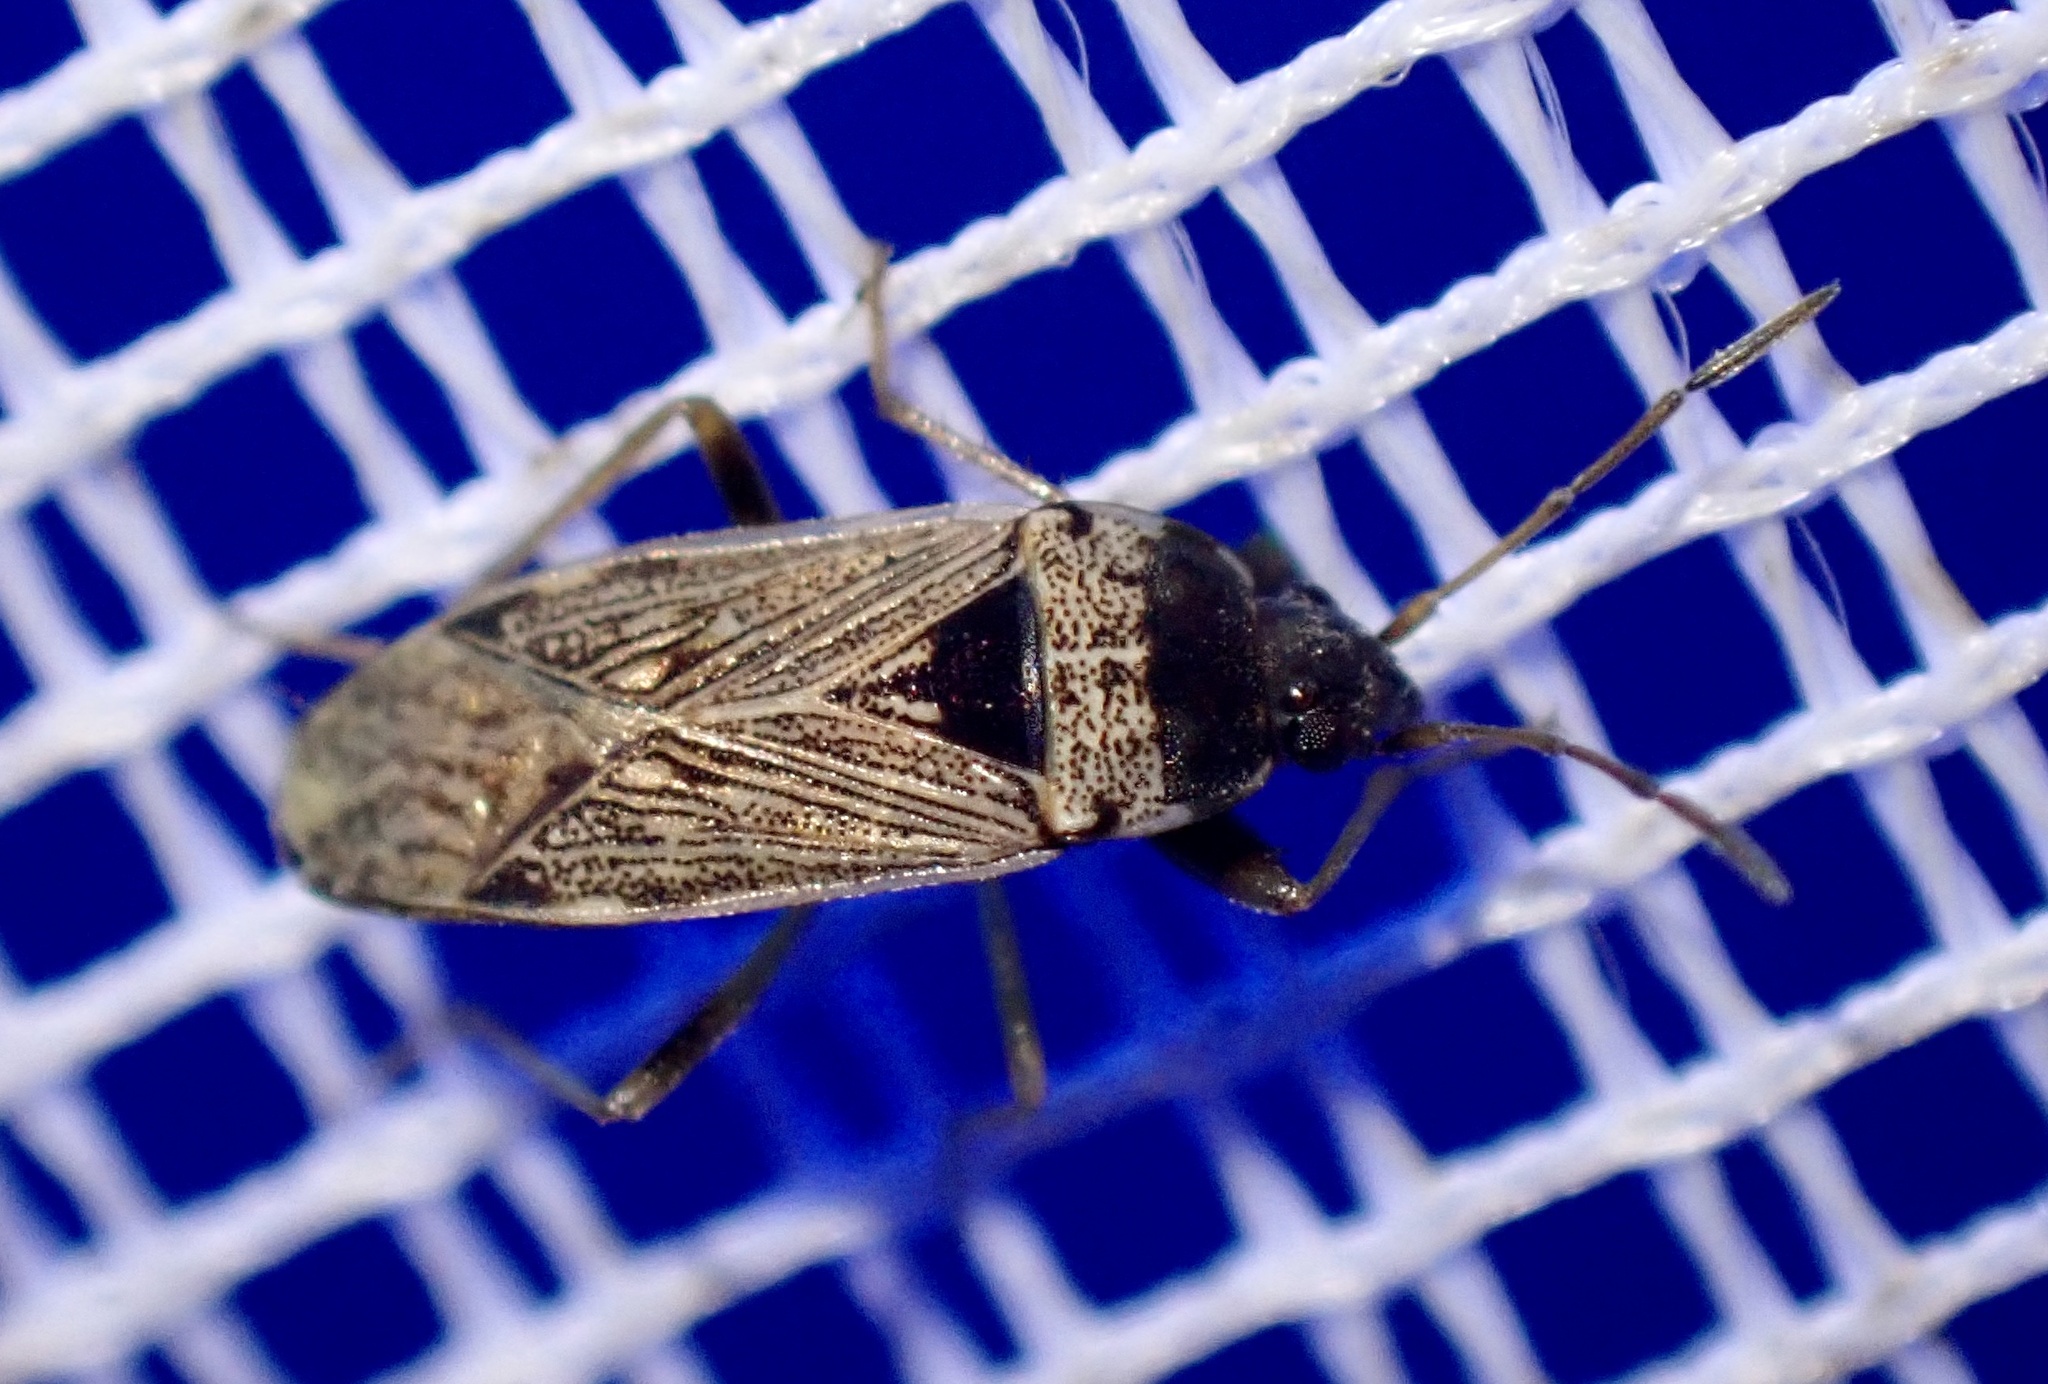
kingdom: Animalia
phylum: Arthropoda
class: Insecta
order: Hemiptera
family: Rhyparochromidae
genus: Elasmolomus
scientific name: Elasmolomus consocialis
